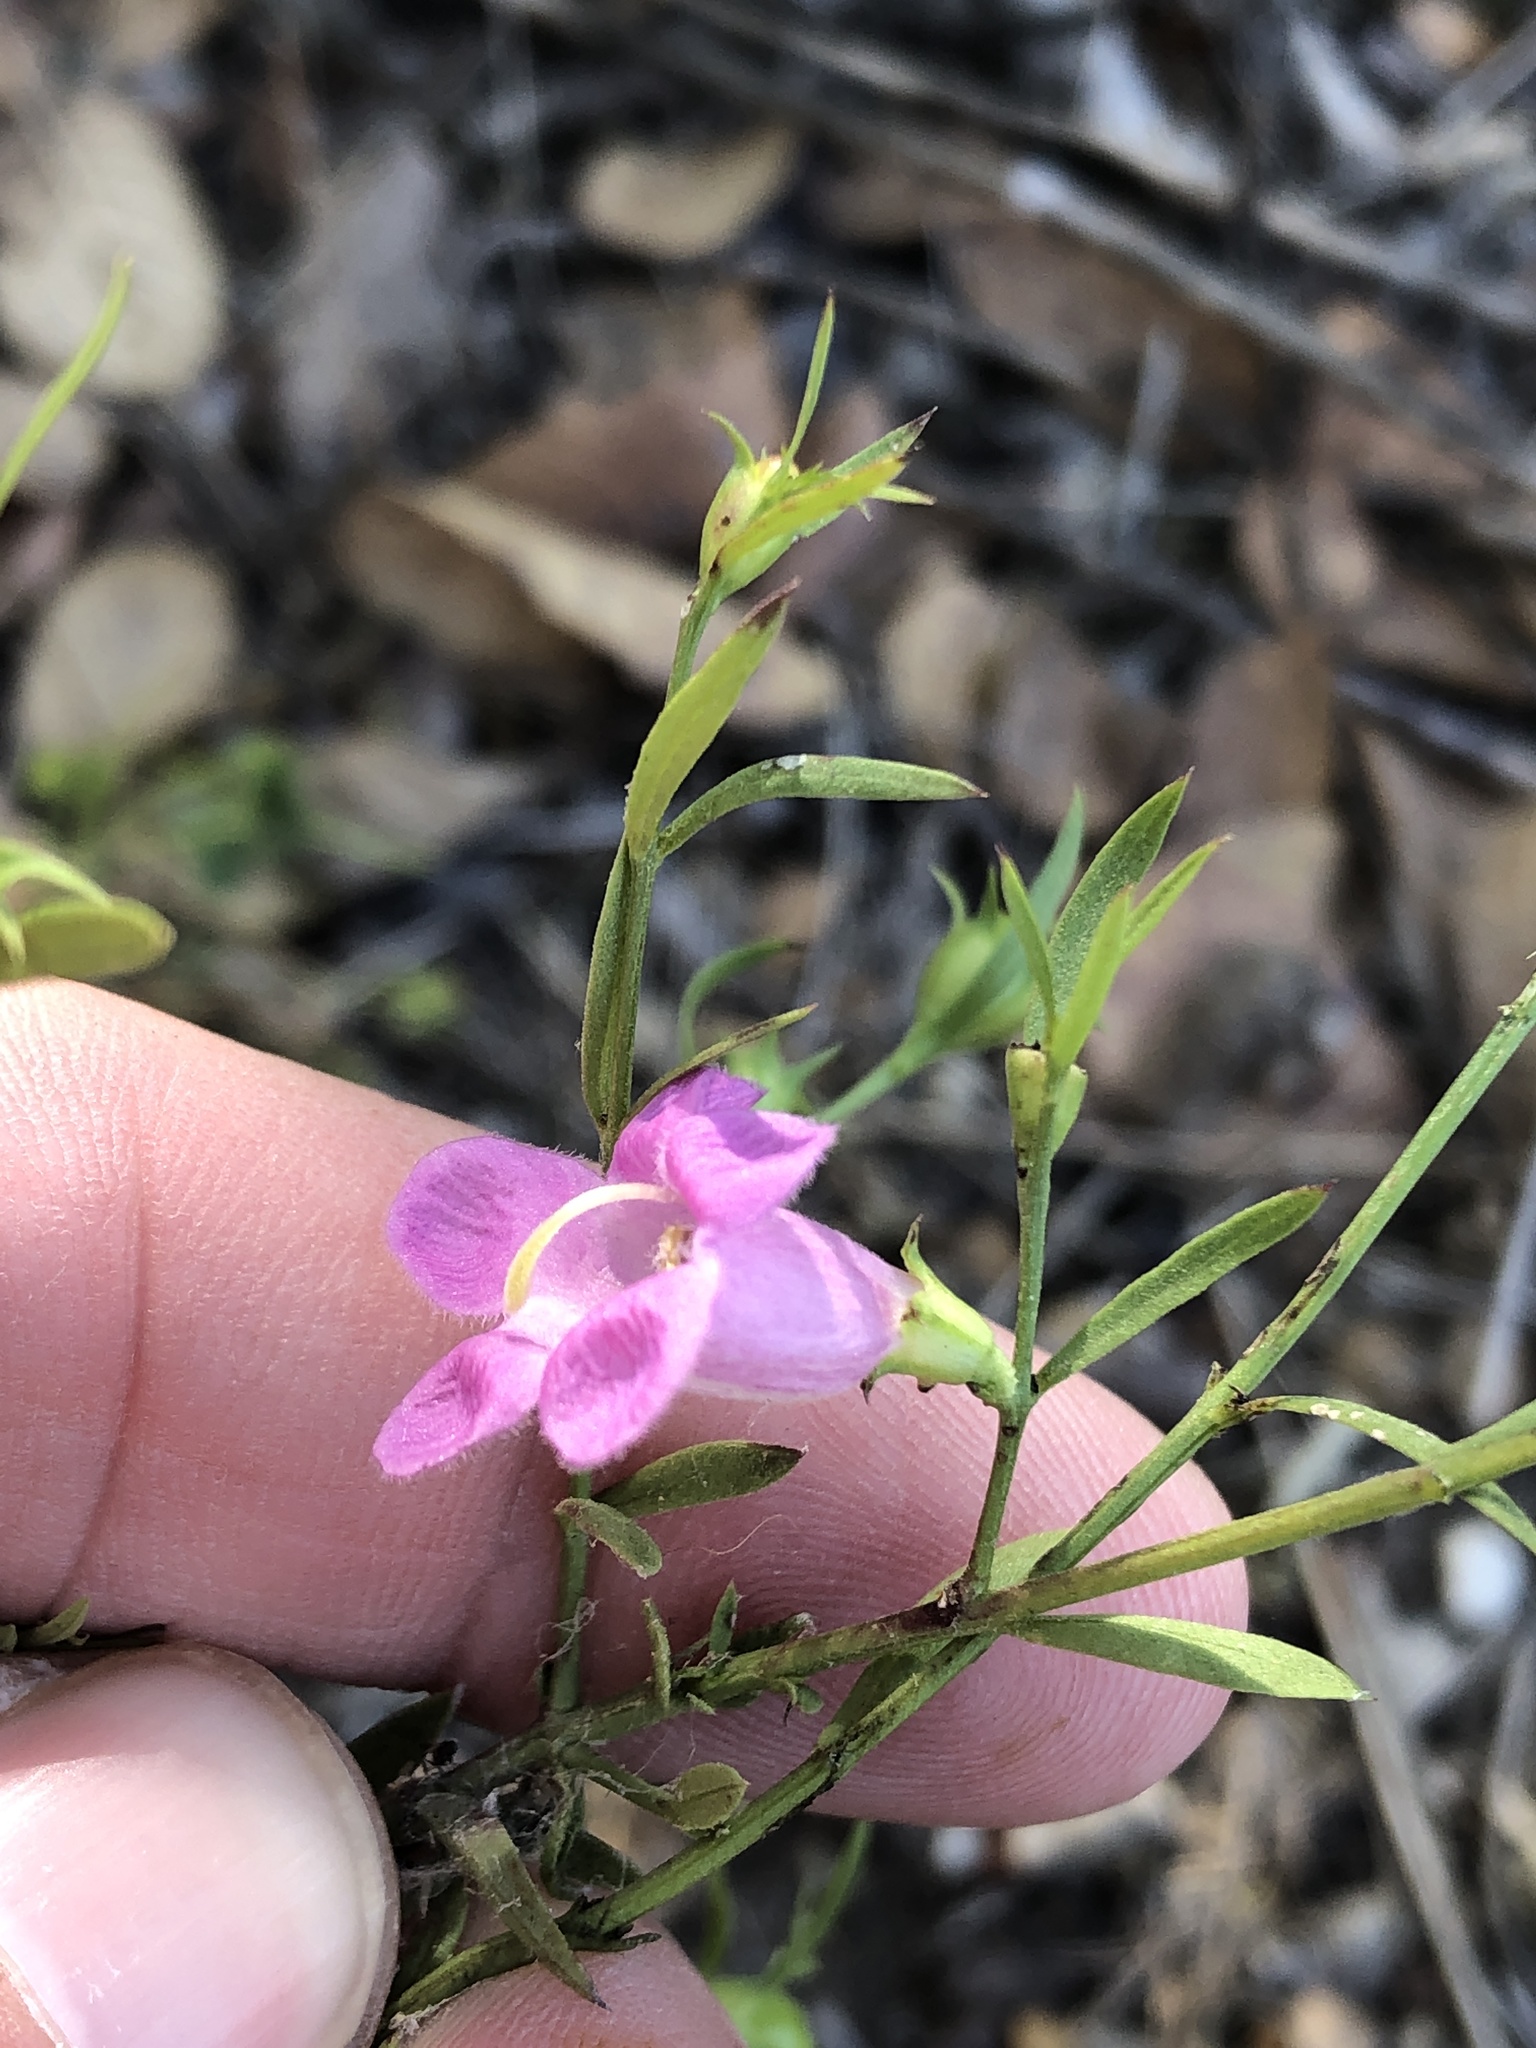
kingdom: Plantae
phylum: Tracheophyta
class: Magnoliopsida
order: Lamiales
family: Orobanchaceae
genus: Agalinis
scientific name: Agalinis heterophylla
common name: Prairie agalinis
